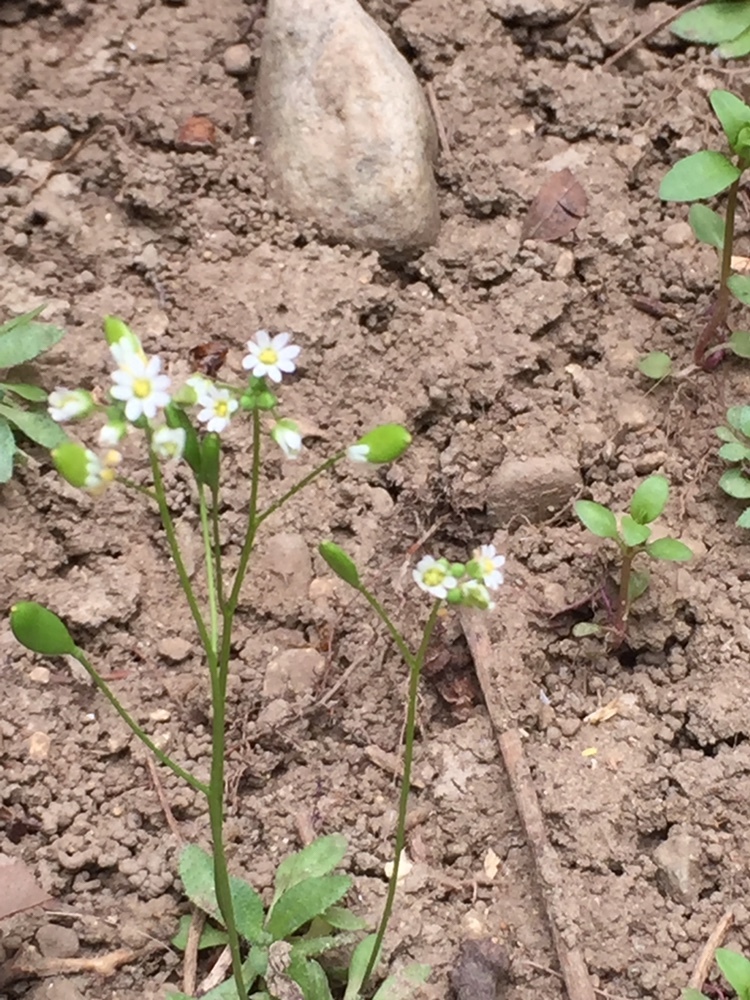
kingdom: Plantae
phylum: Tracheophyta
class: Magnoliopsida
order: Brassicales
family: Brassicaceae
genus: Draba
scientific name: Draba verna
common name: Spring draba
